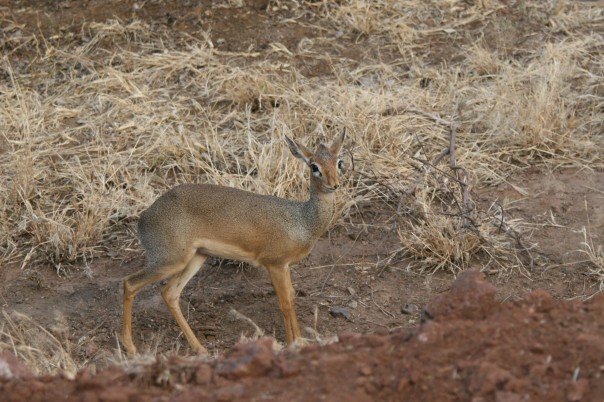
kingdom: Animalia
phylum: Chordata
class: Mammalia
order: Artiodactyla
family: Bovidae
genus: Madoqua
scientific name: Madoqua
